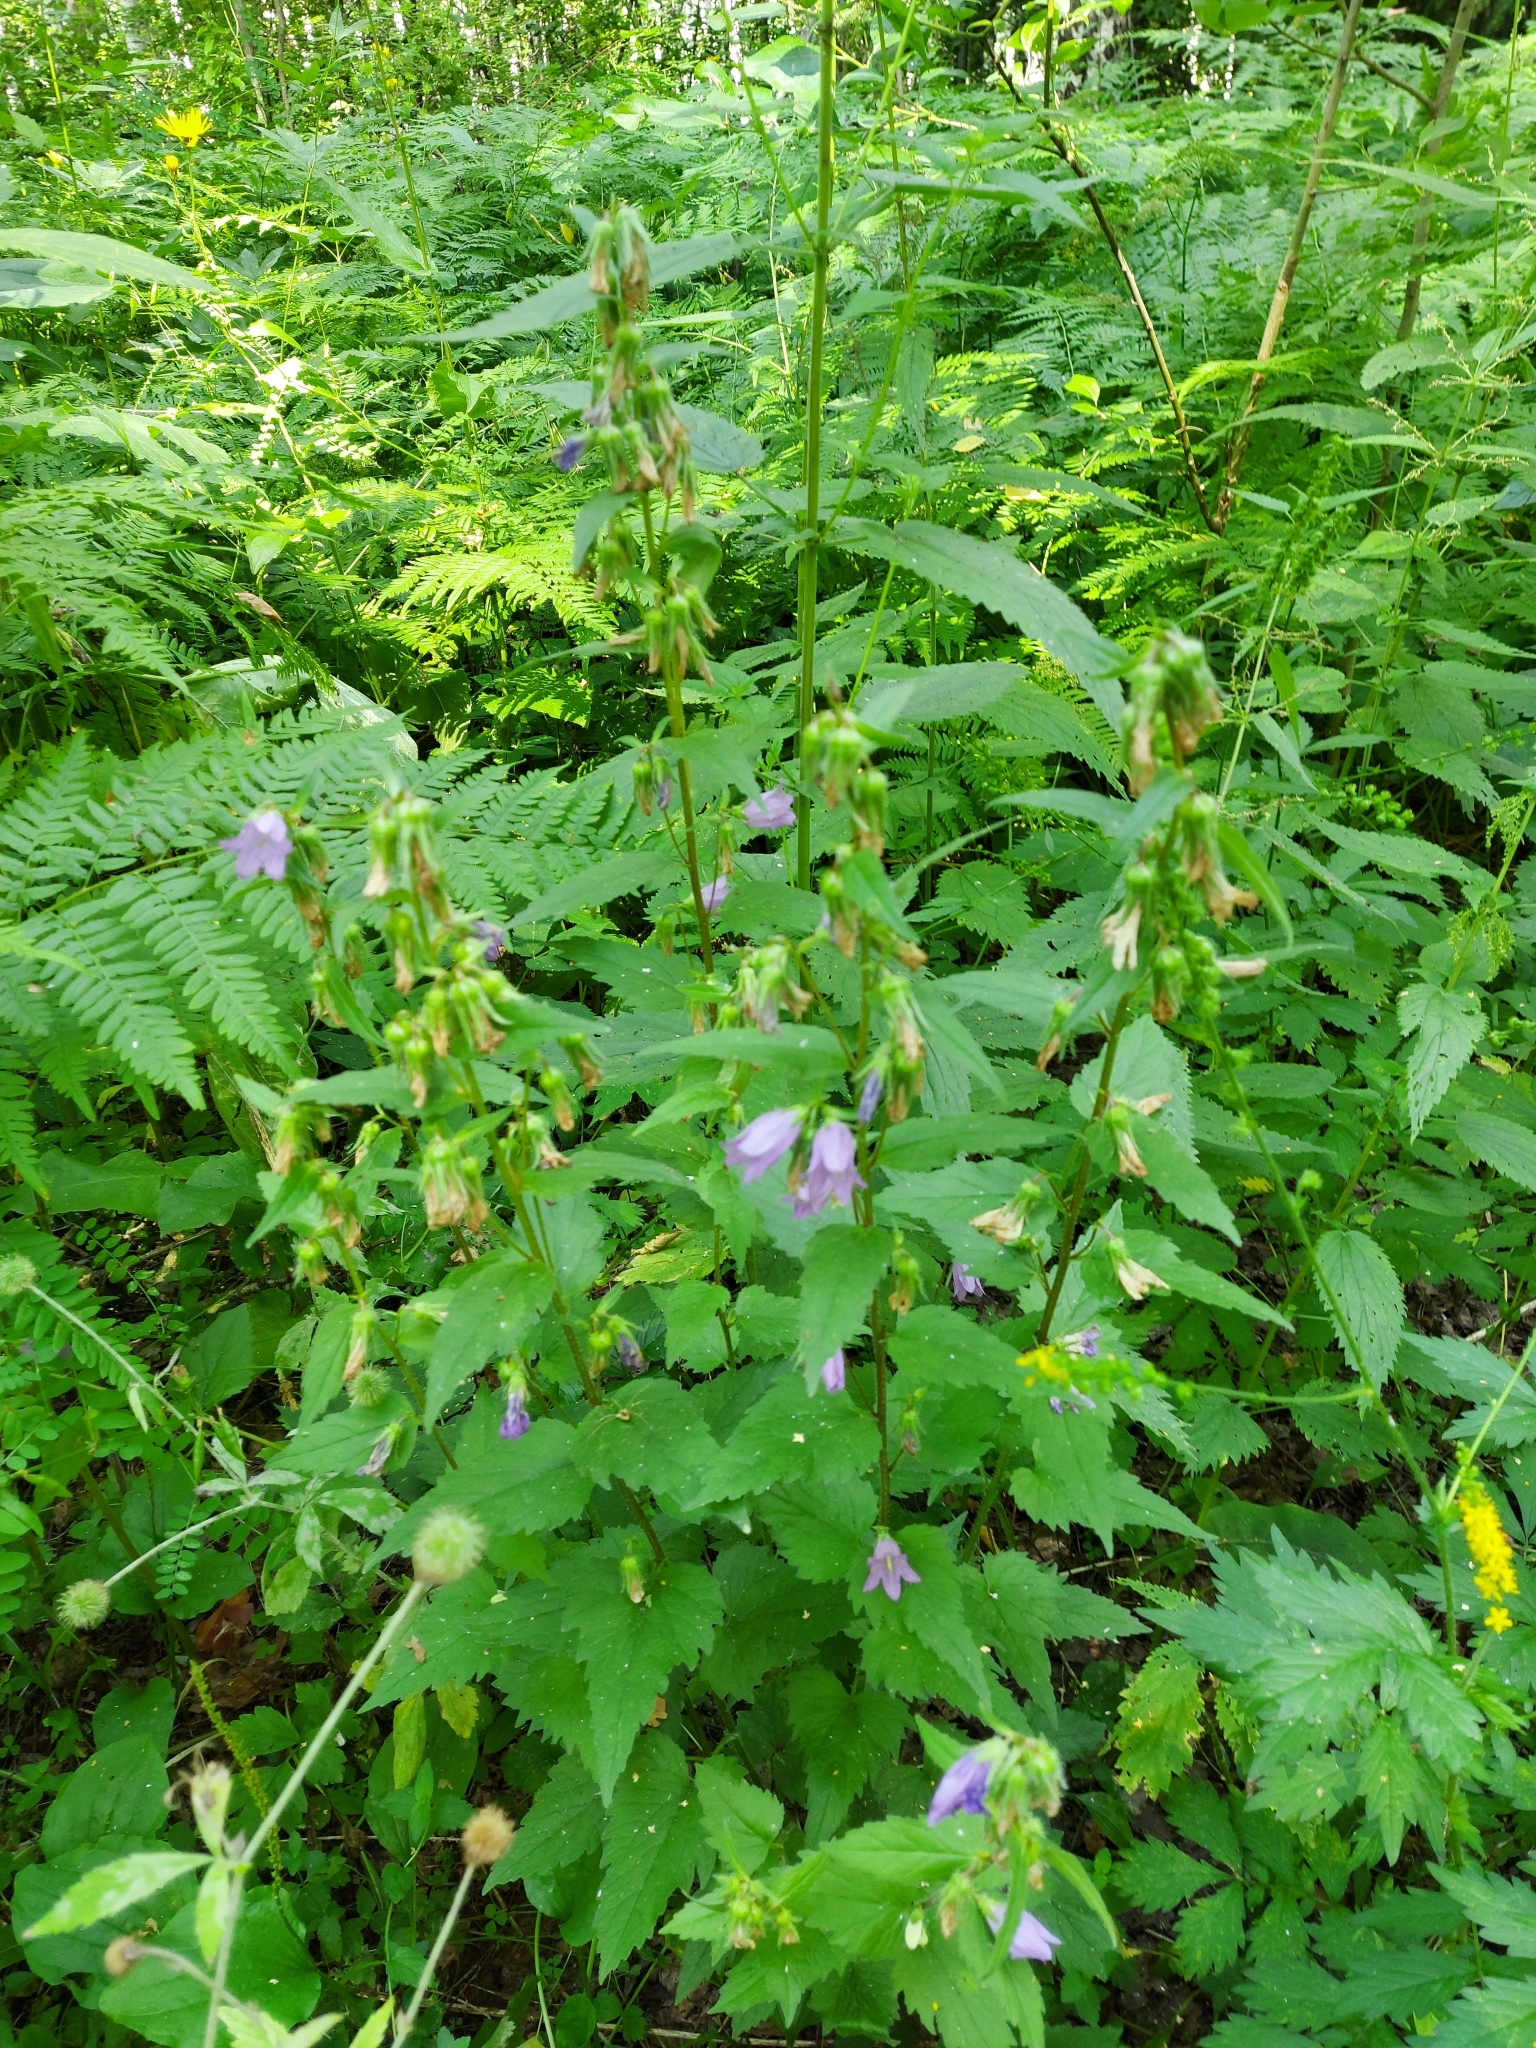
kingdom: Plantae
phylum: Tracheophyta
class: Magnoliopsida
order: Asterales
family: Campanulaceae
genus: Campanula
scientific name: Campanula trachelium
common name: Nettle-leaved bellflower
